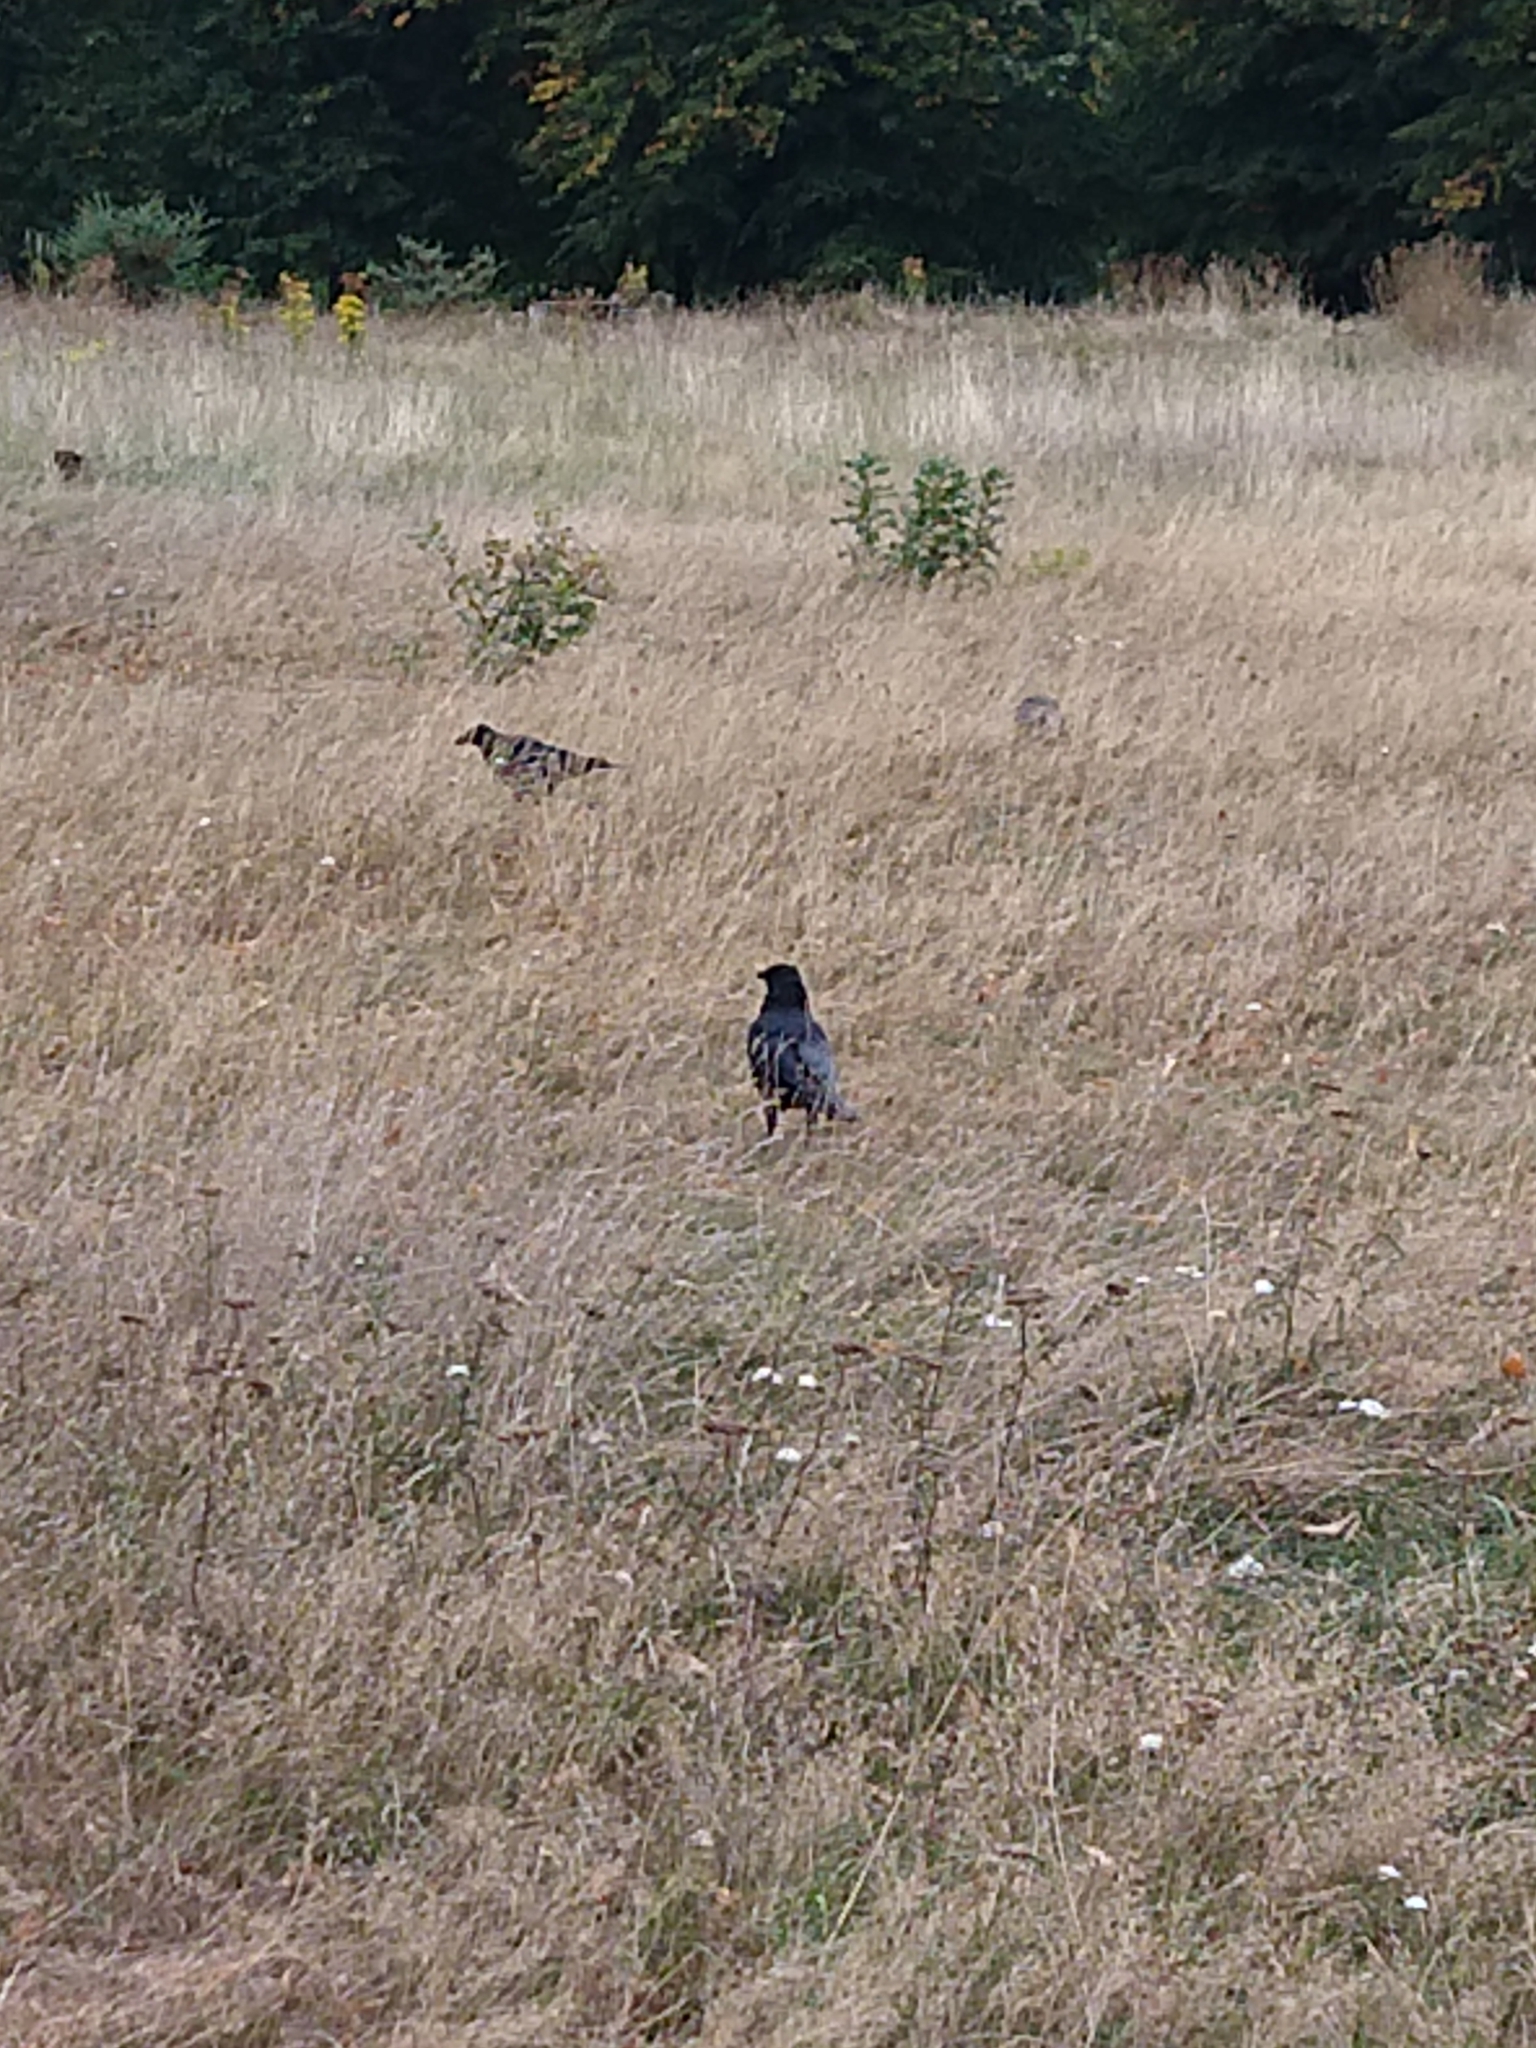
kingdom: Animalia
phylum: Chordata
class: Aves
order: Passeriformes
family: Corvidae
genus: Corvus
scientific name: Corvus corone
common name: Carrion crow
